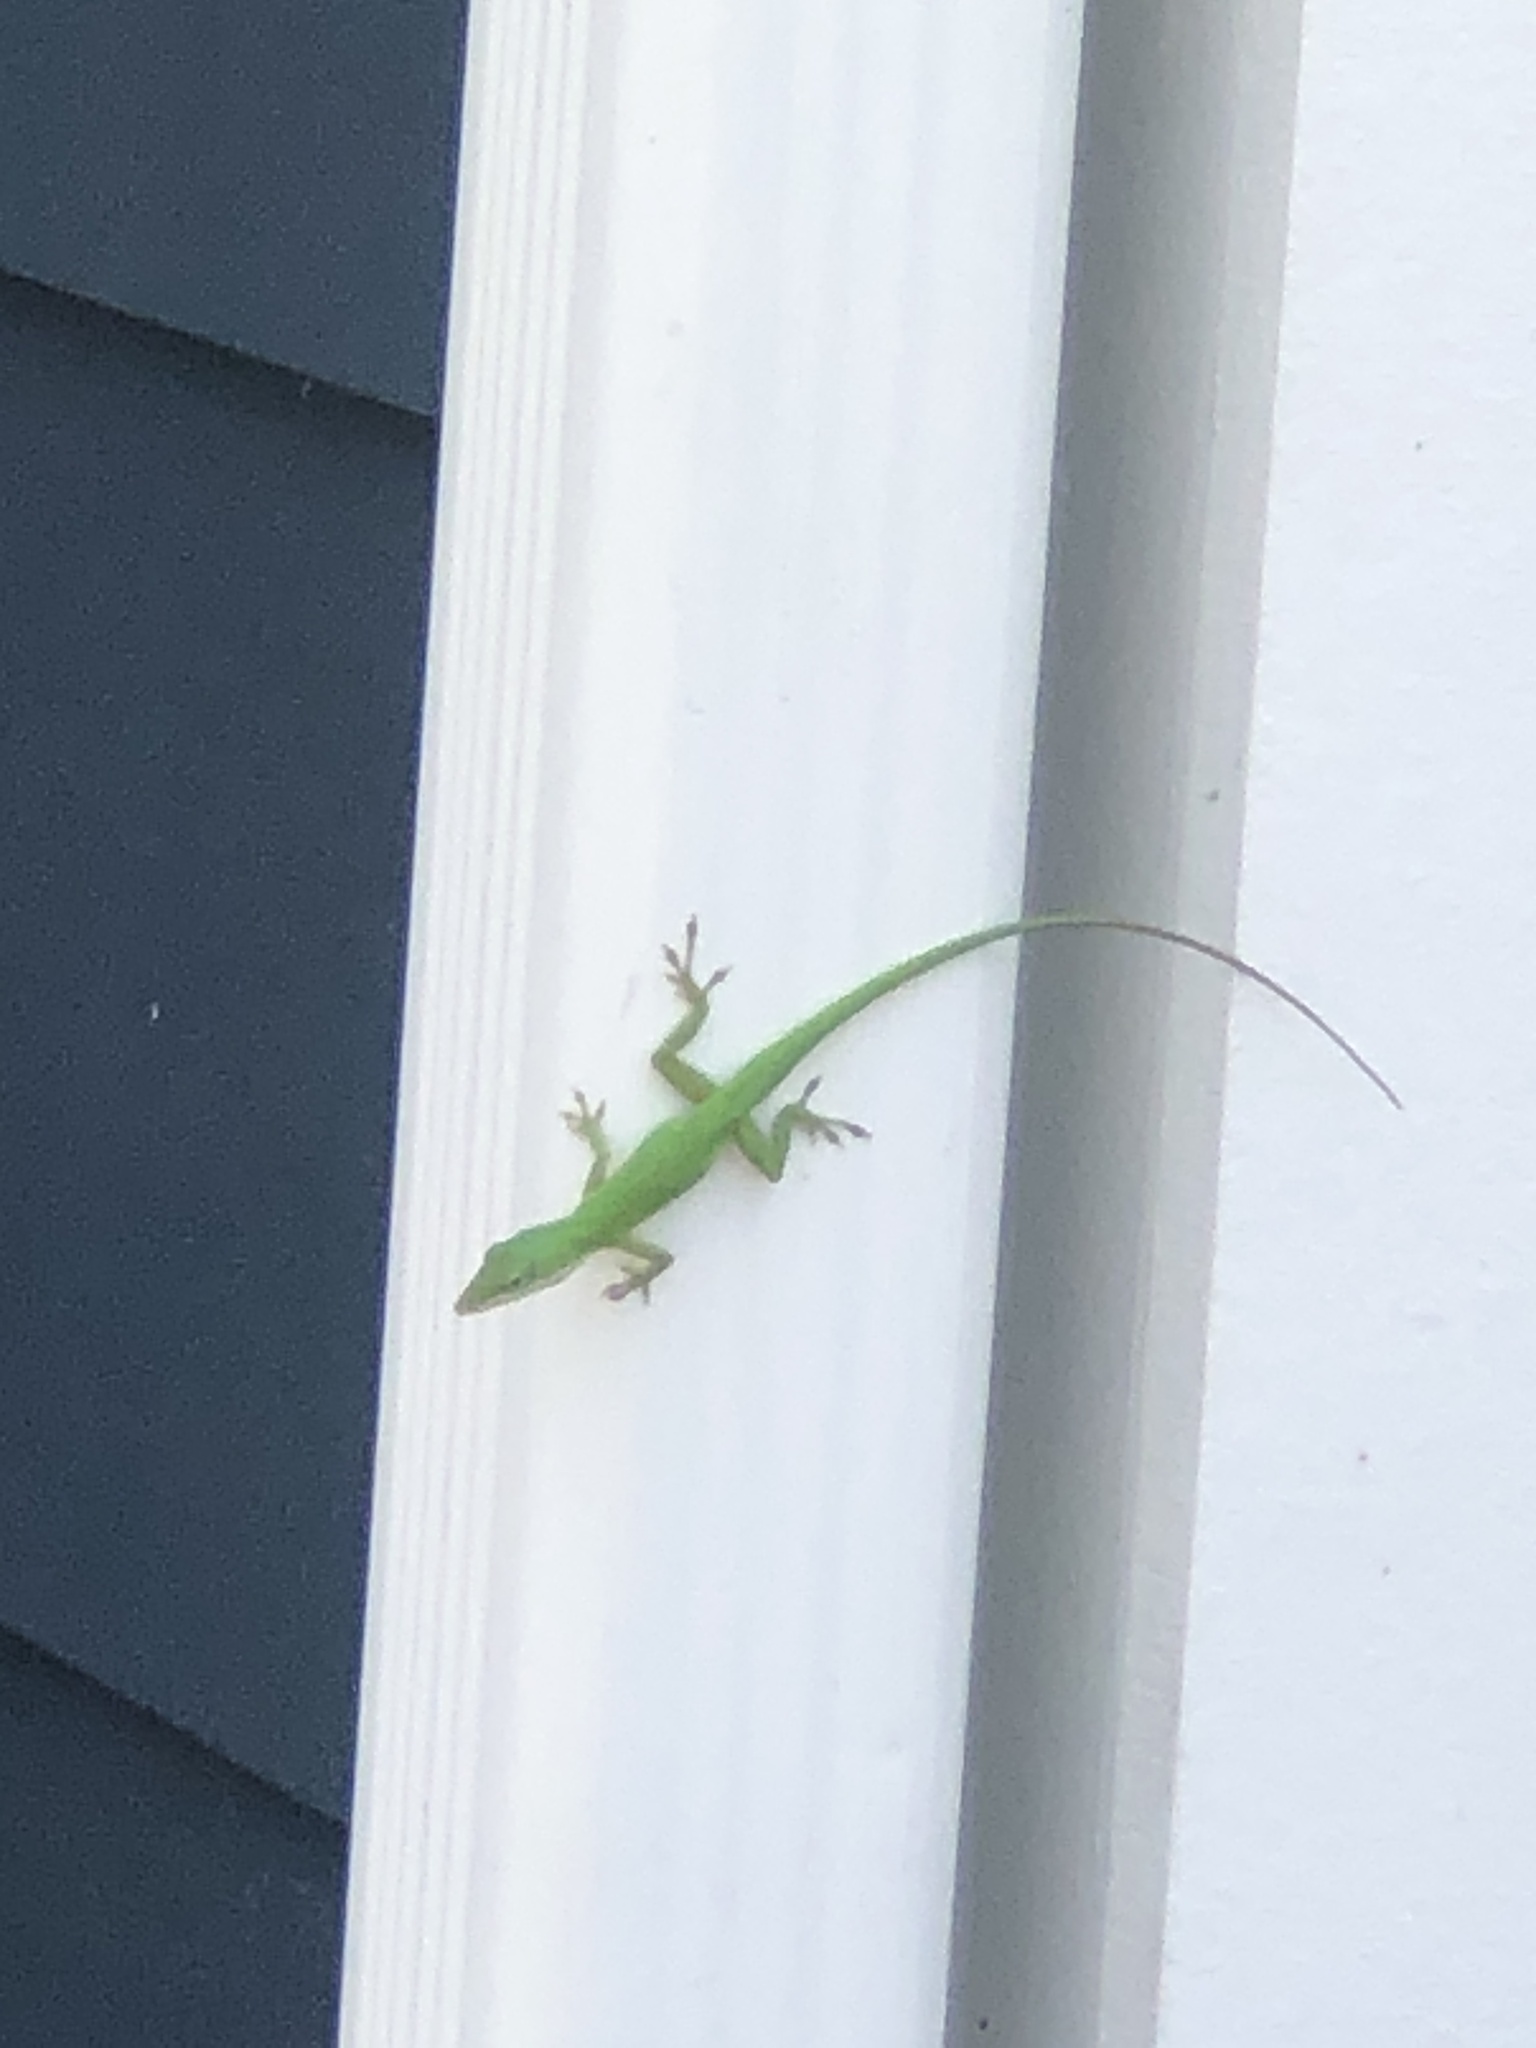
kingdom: Animalia
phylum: Chordata
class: Squamata
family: Dactyloidae
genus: Anolis
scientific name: Anolis carolinensis
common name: Green anole
